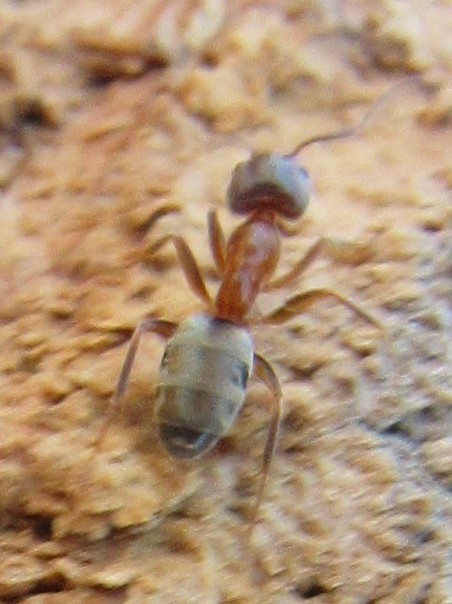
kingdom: Animalia
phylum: Arthropoda
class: Insecta
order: Hymenoptera
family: Formicidae
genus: Liometopum
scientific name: Liometopum occidentale
